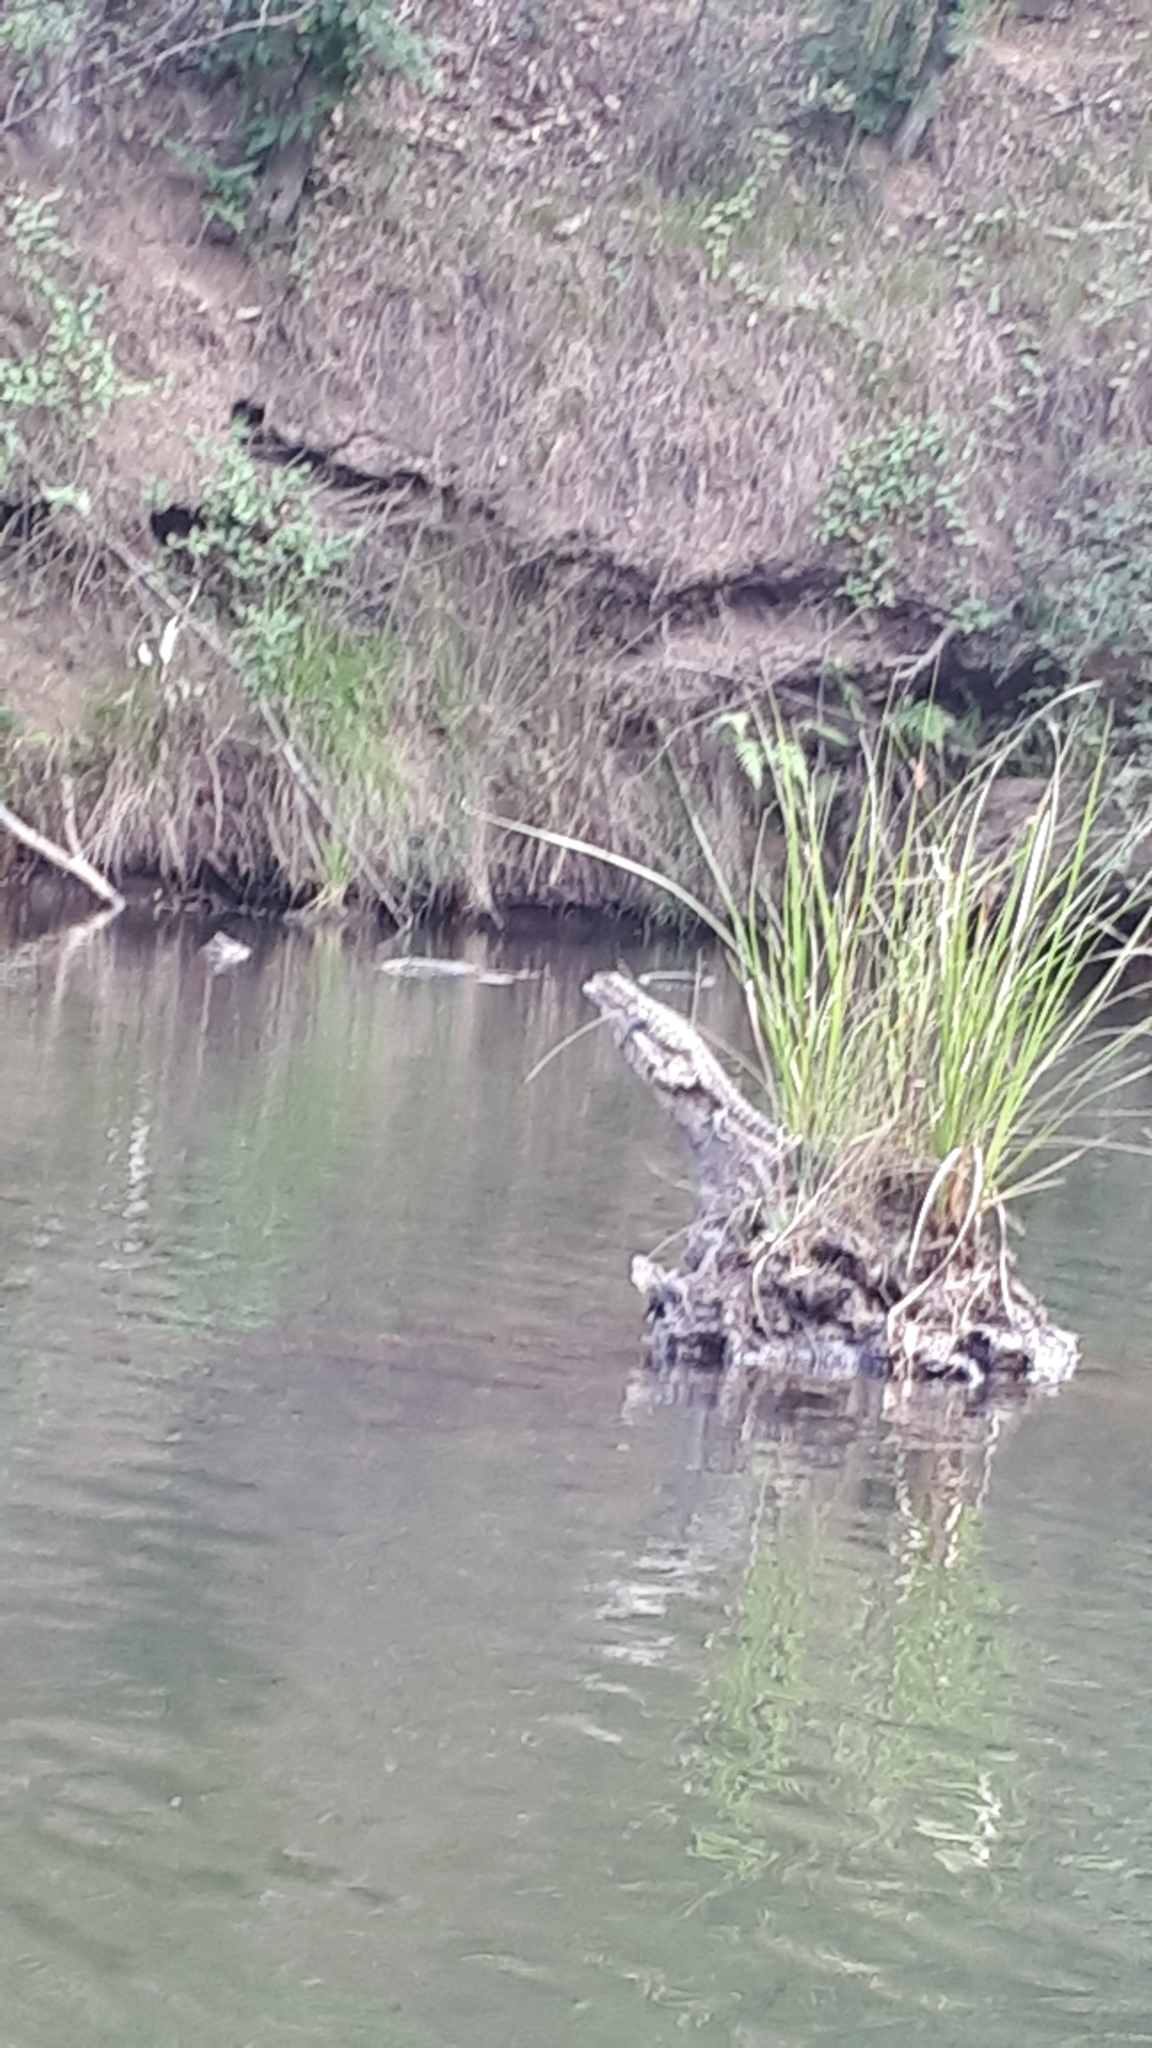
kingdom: Animalia
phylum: Chordata
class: Squamata
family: Agamidae
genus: Intellagama
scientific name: Intellagama lesueurii
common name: Eastern water dragon
